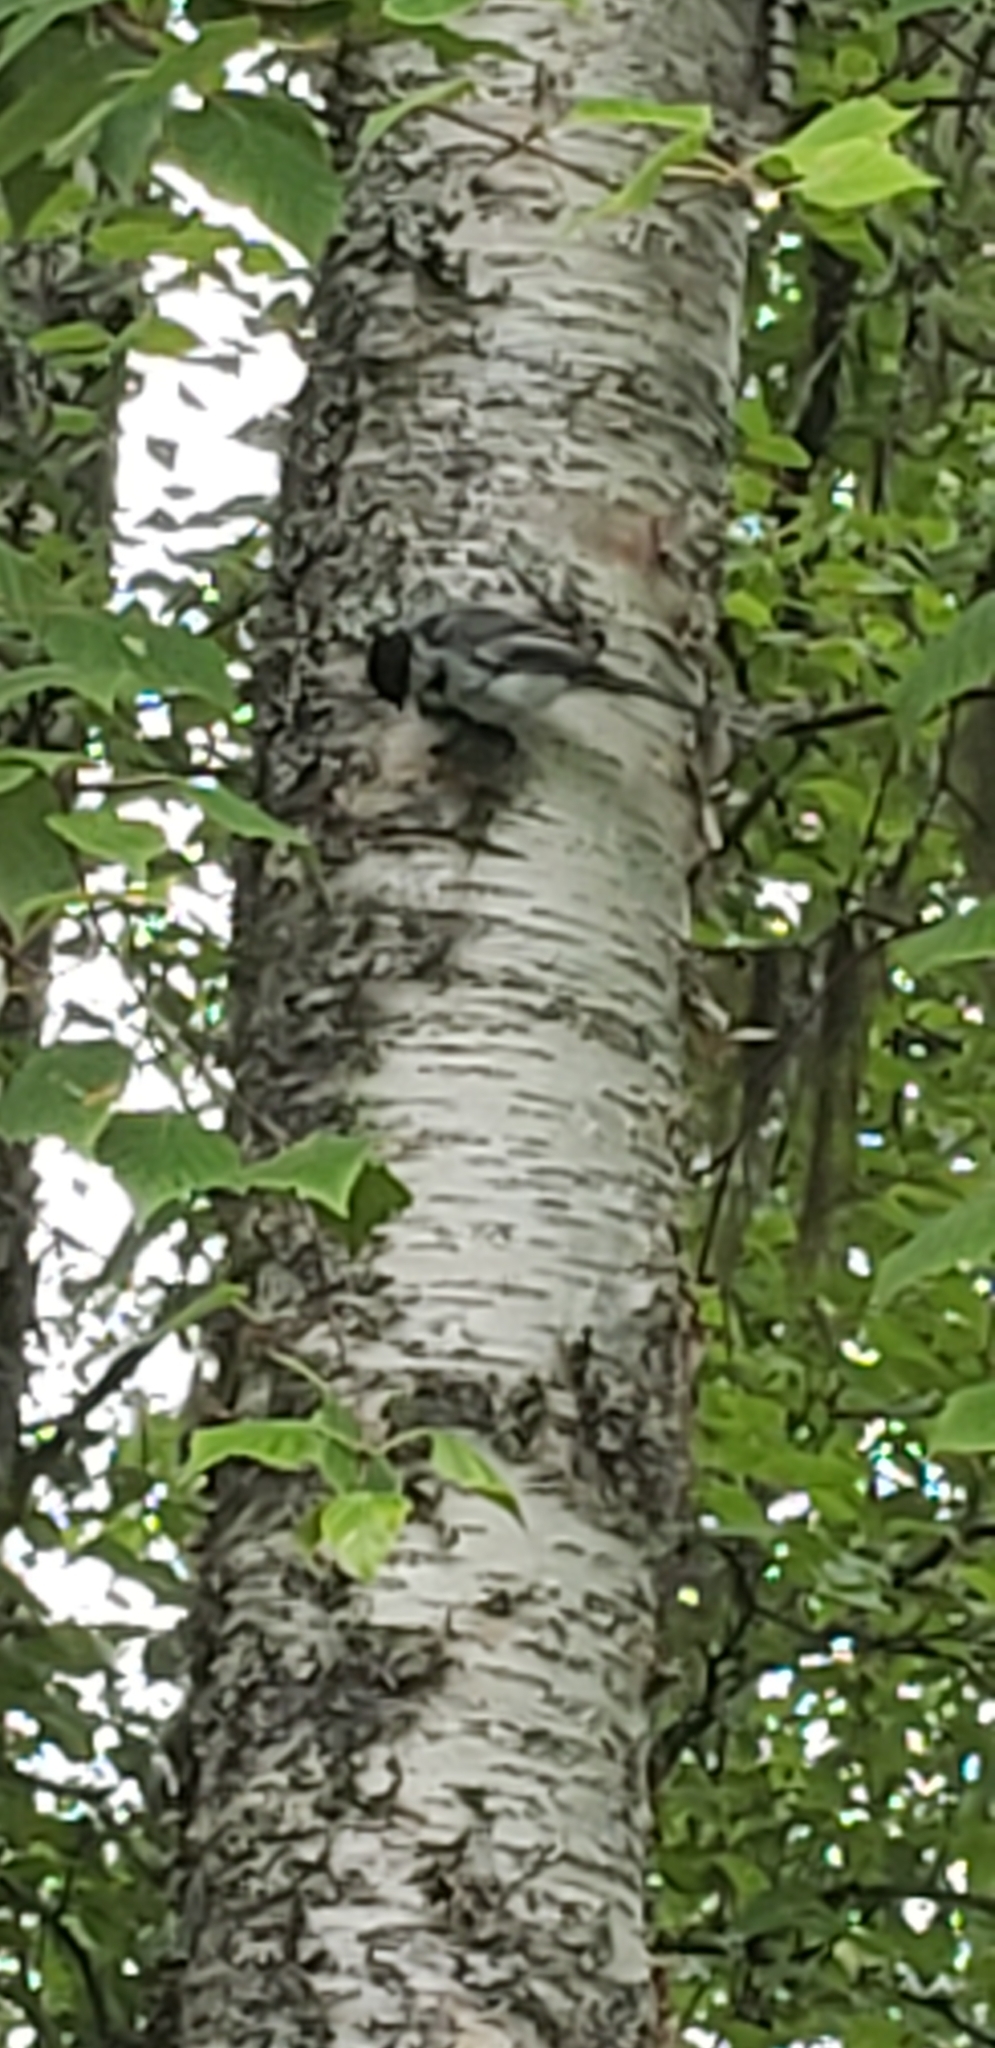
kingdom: Animalia
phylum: Chordata
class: Aves
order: Passeriformes
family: Paridae
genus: Poecile
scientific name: Poecile atricapillus
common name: Black-capped chickadee
